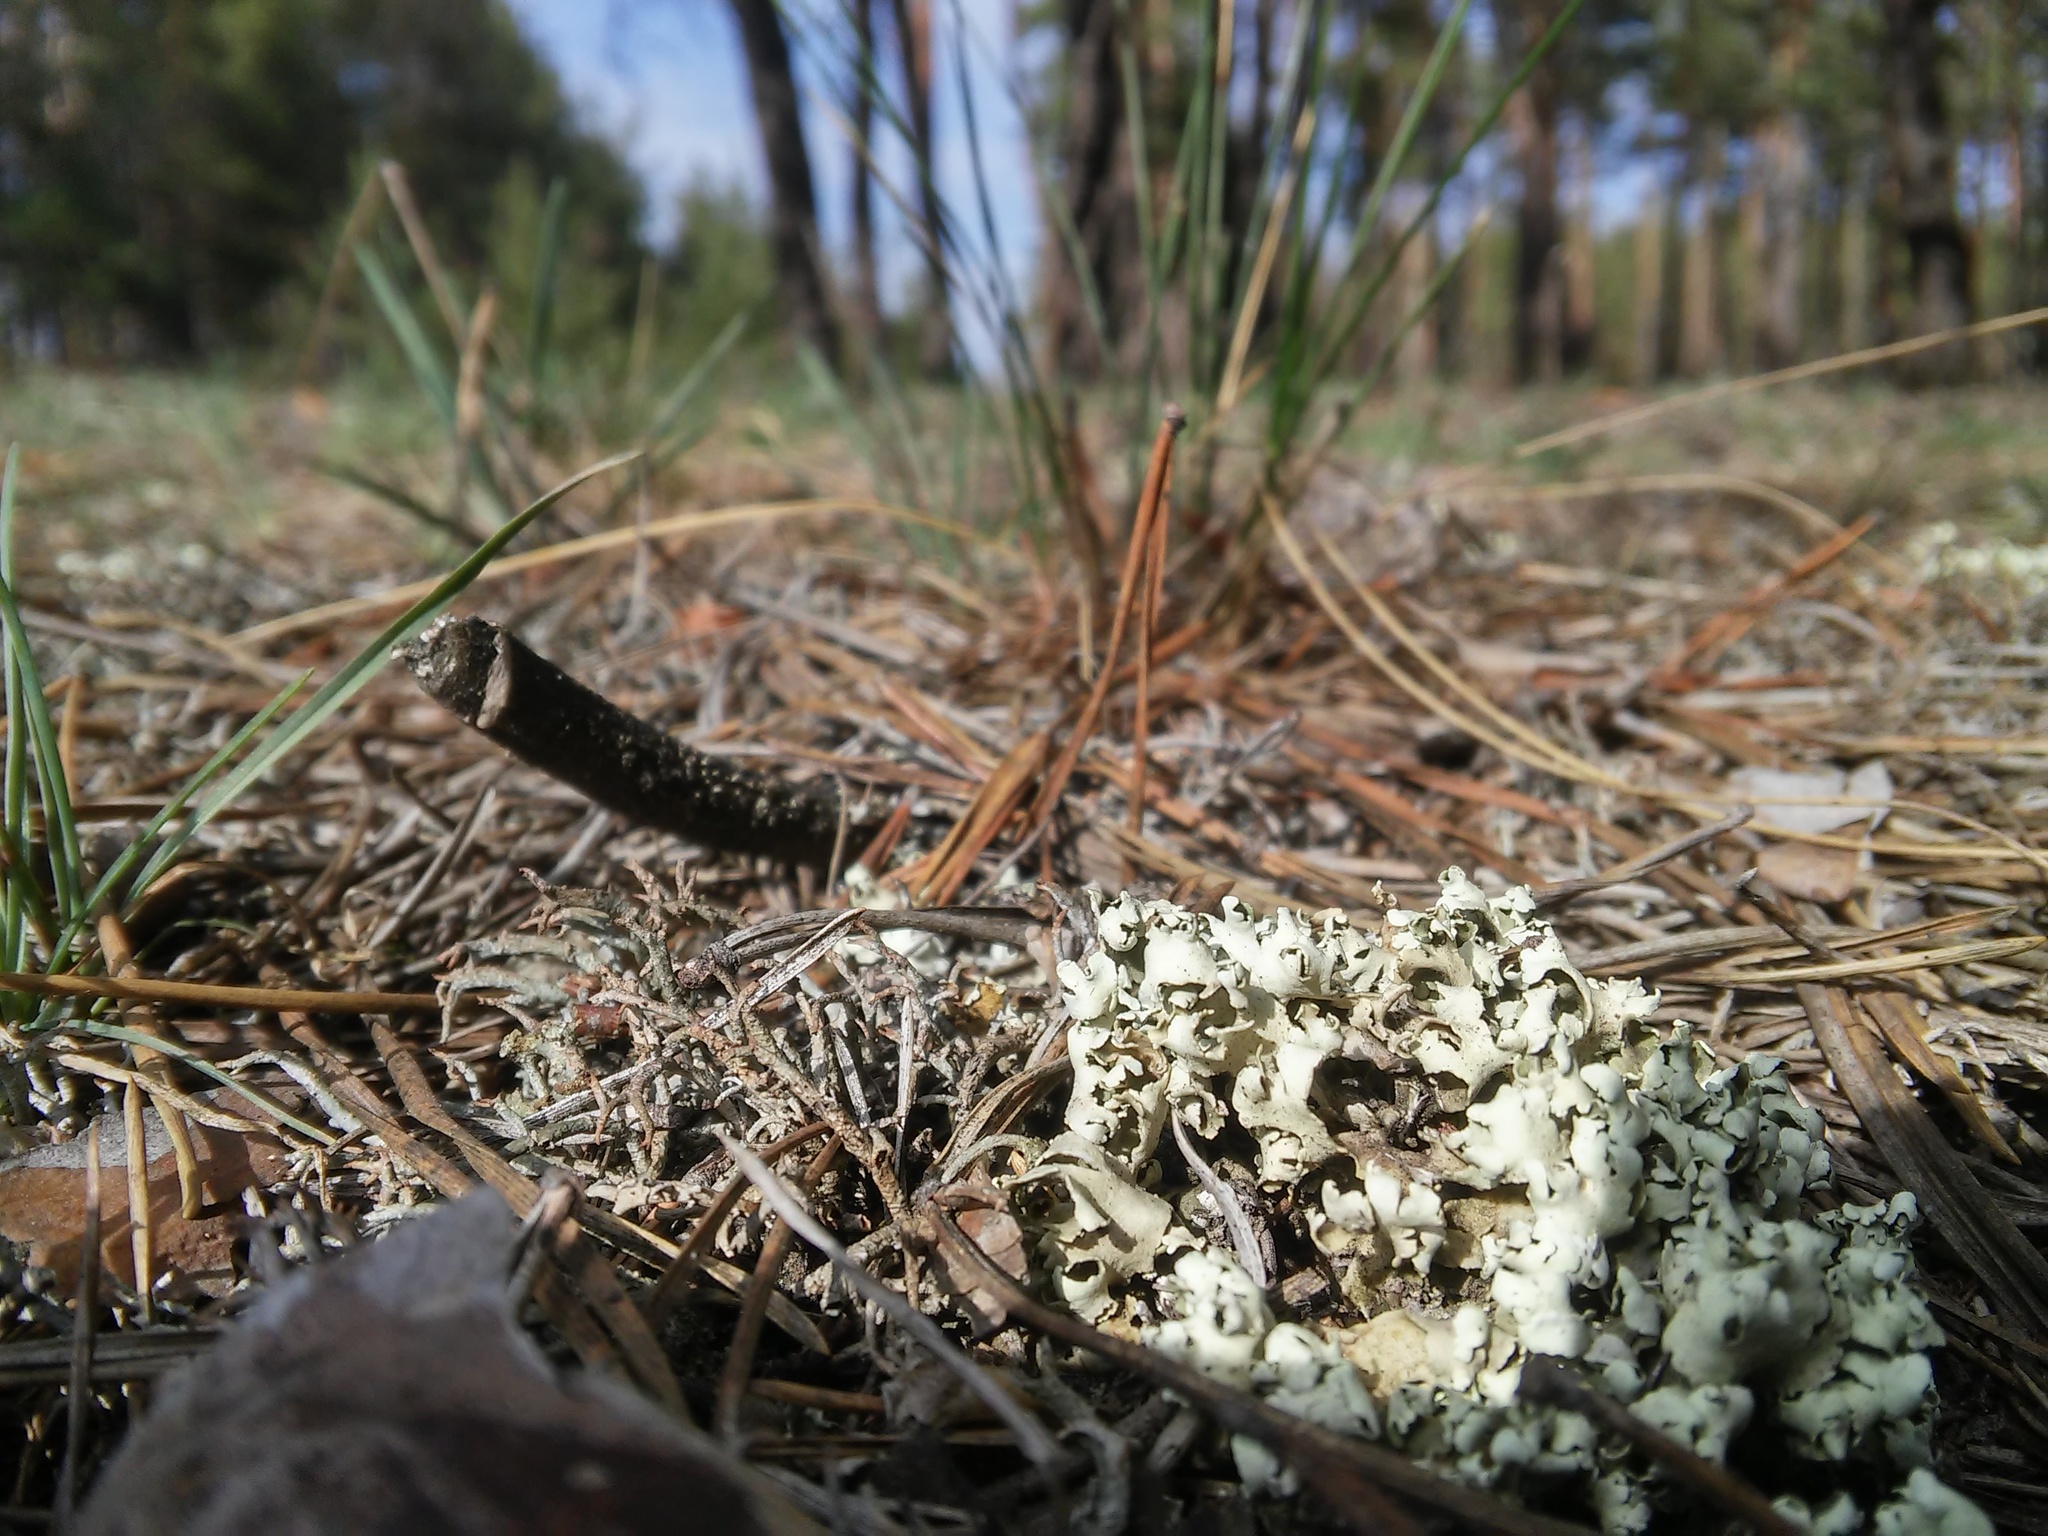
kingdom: Fungi
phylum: Ascomycota
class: Lecanoromycetes
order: Lecanorales
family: Cladoniaceae
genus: Cladonia
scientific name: Cladonia foliacea
